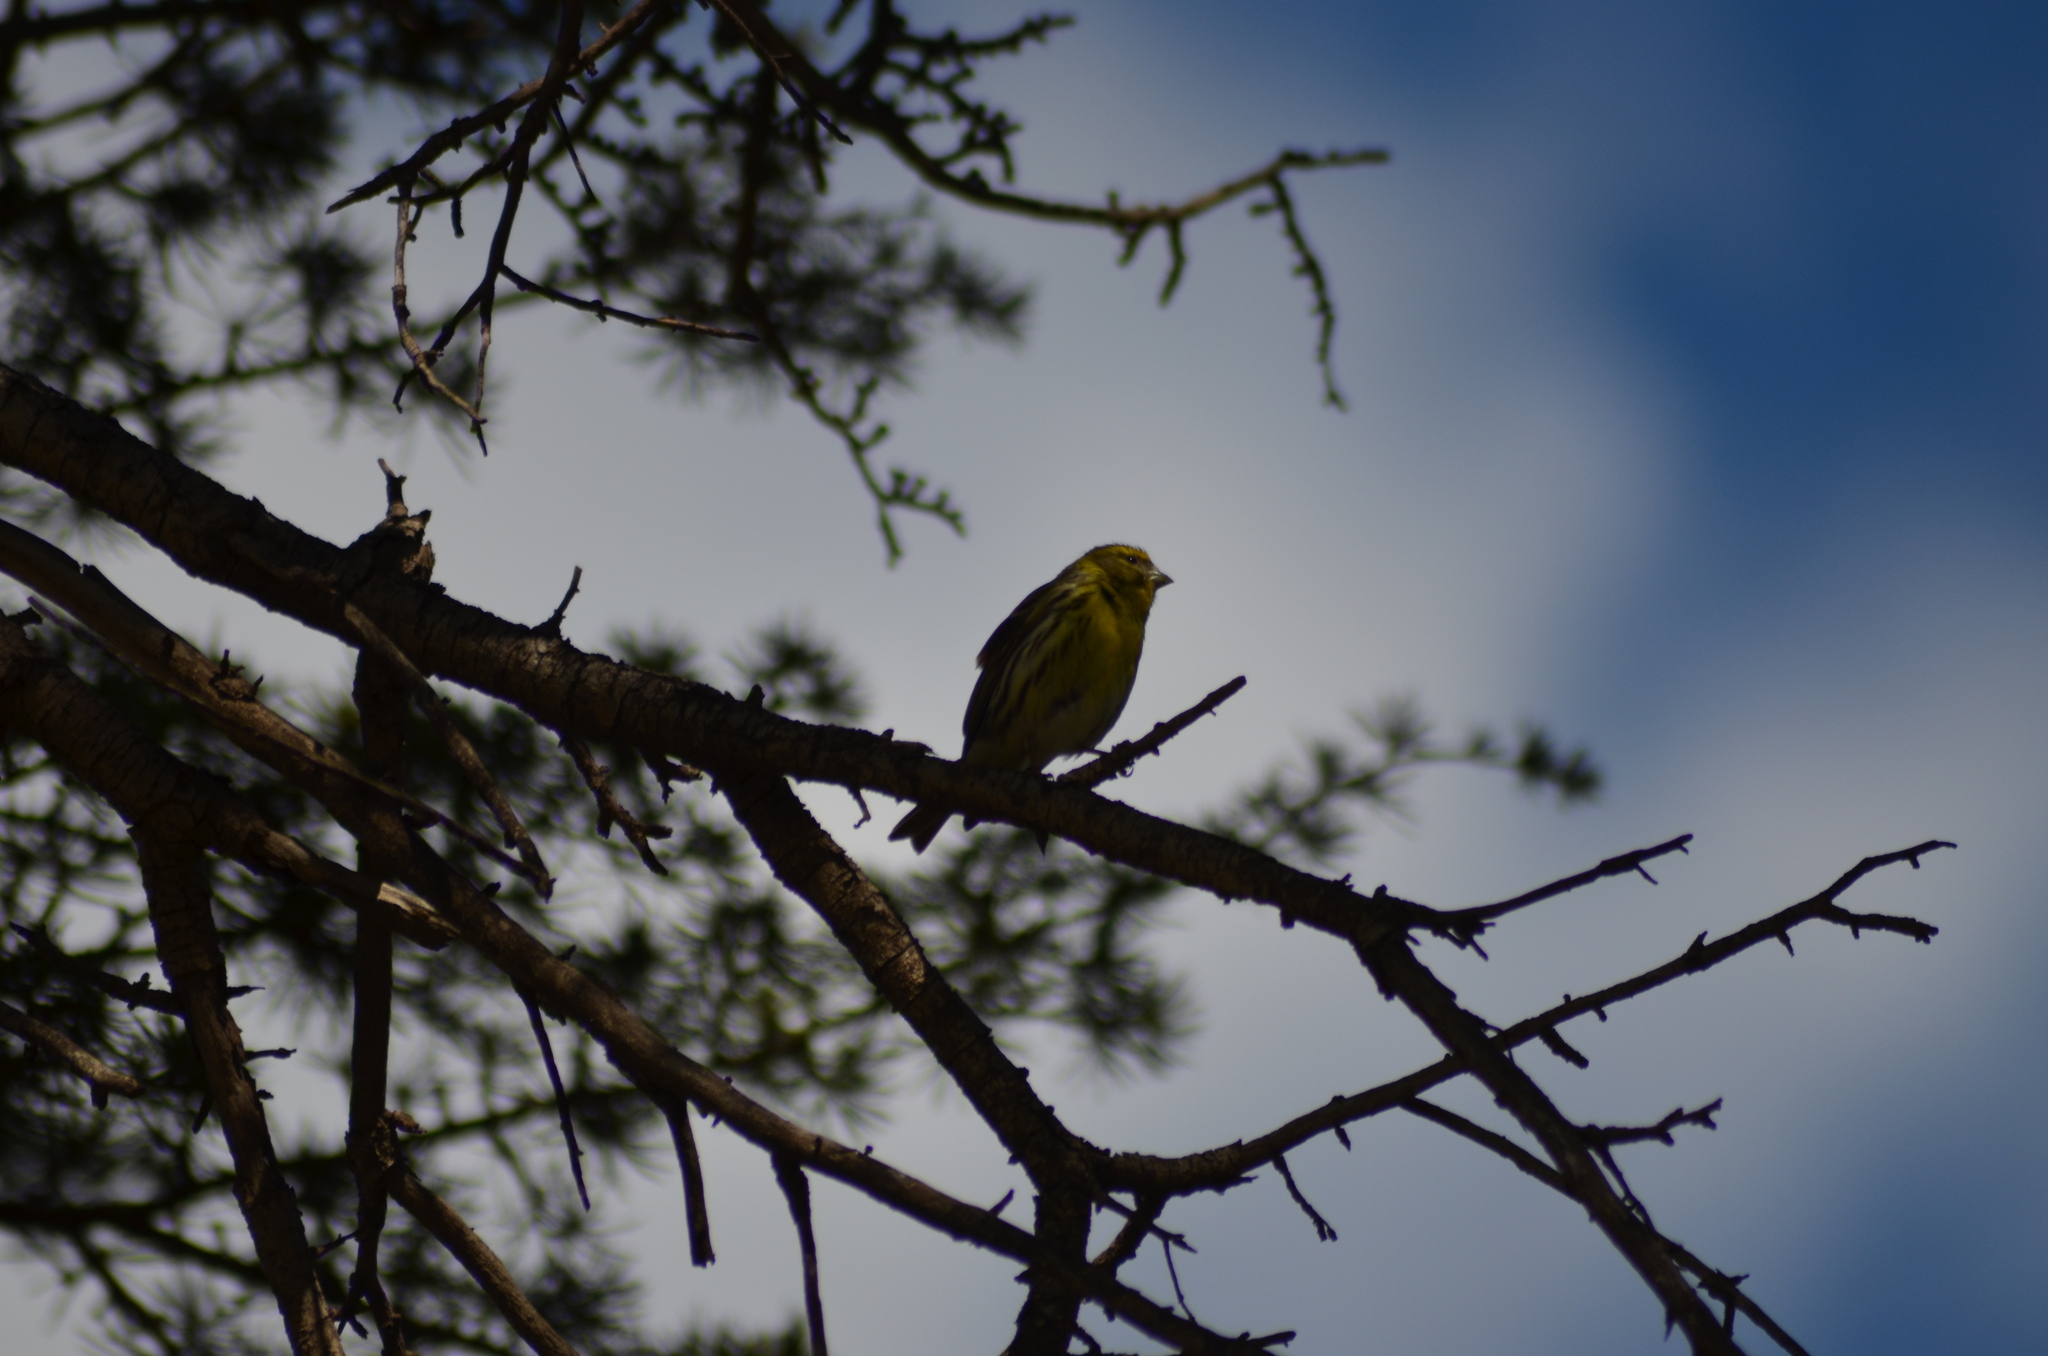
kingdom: Animalia
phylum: Chordata
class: Aves
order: Passeriformes
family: Fringillidae
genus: Serinus
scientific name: Serinus serinus
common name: European serin
